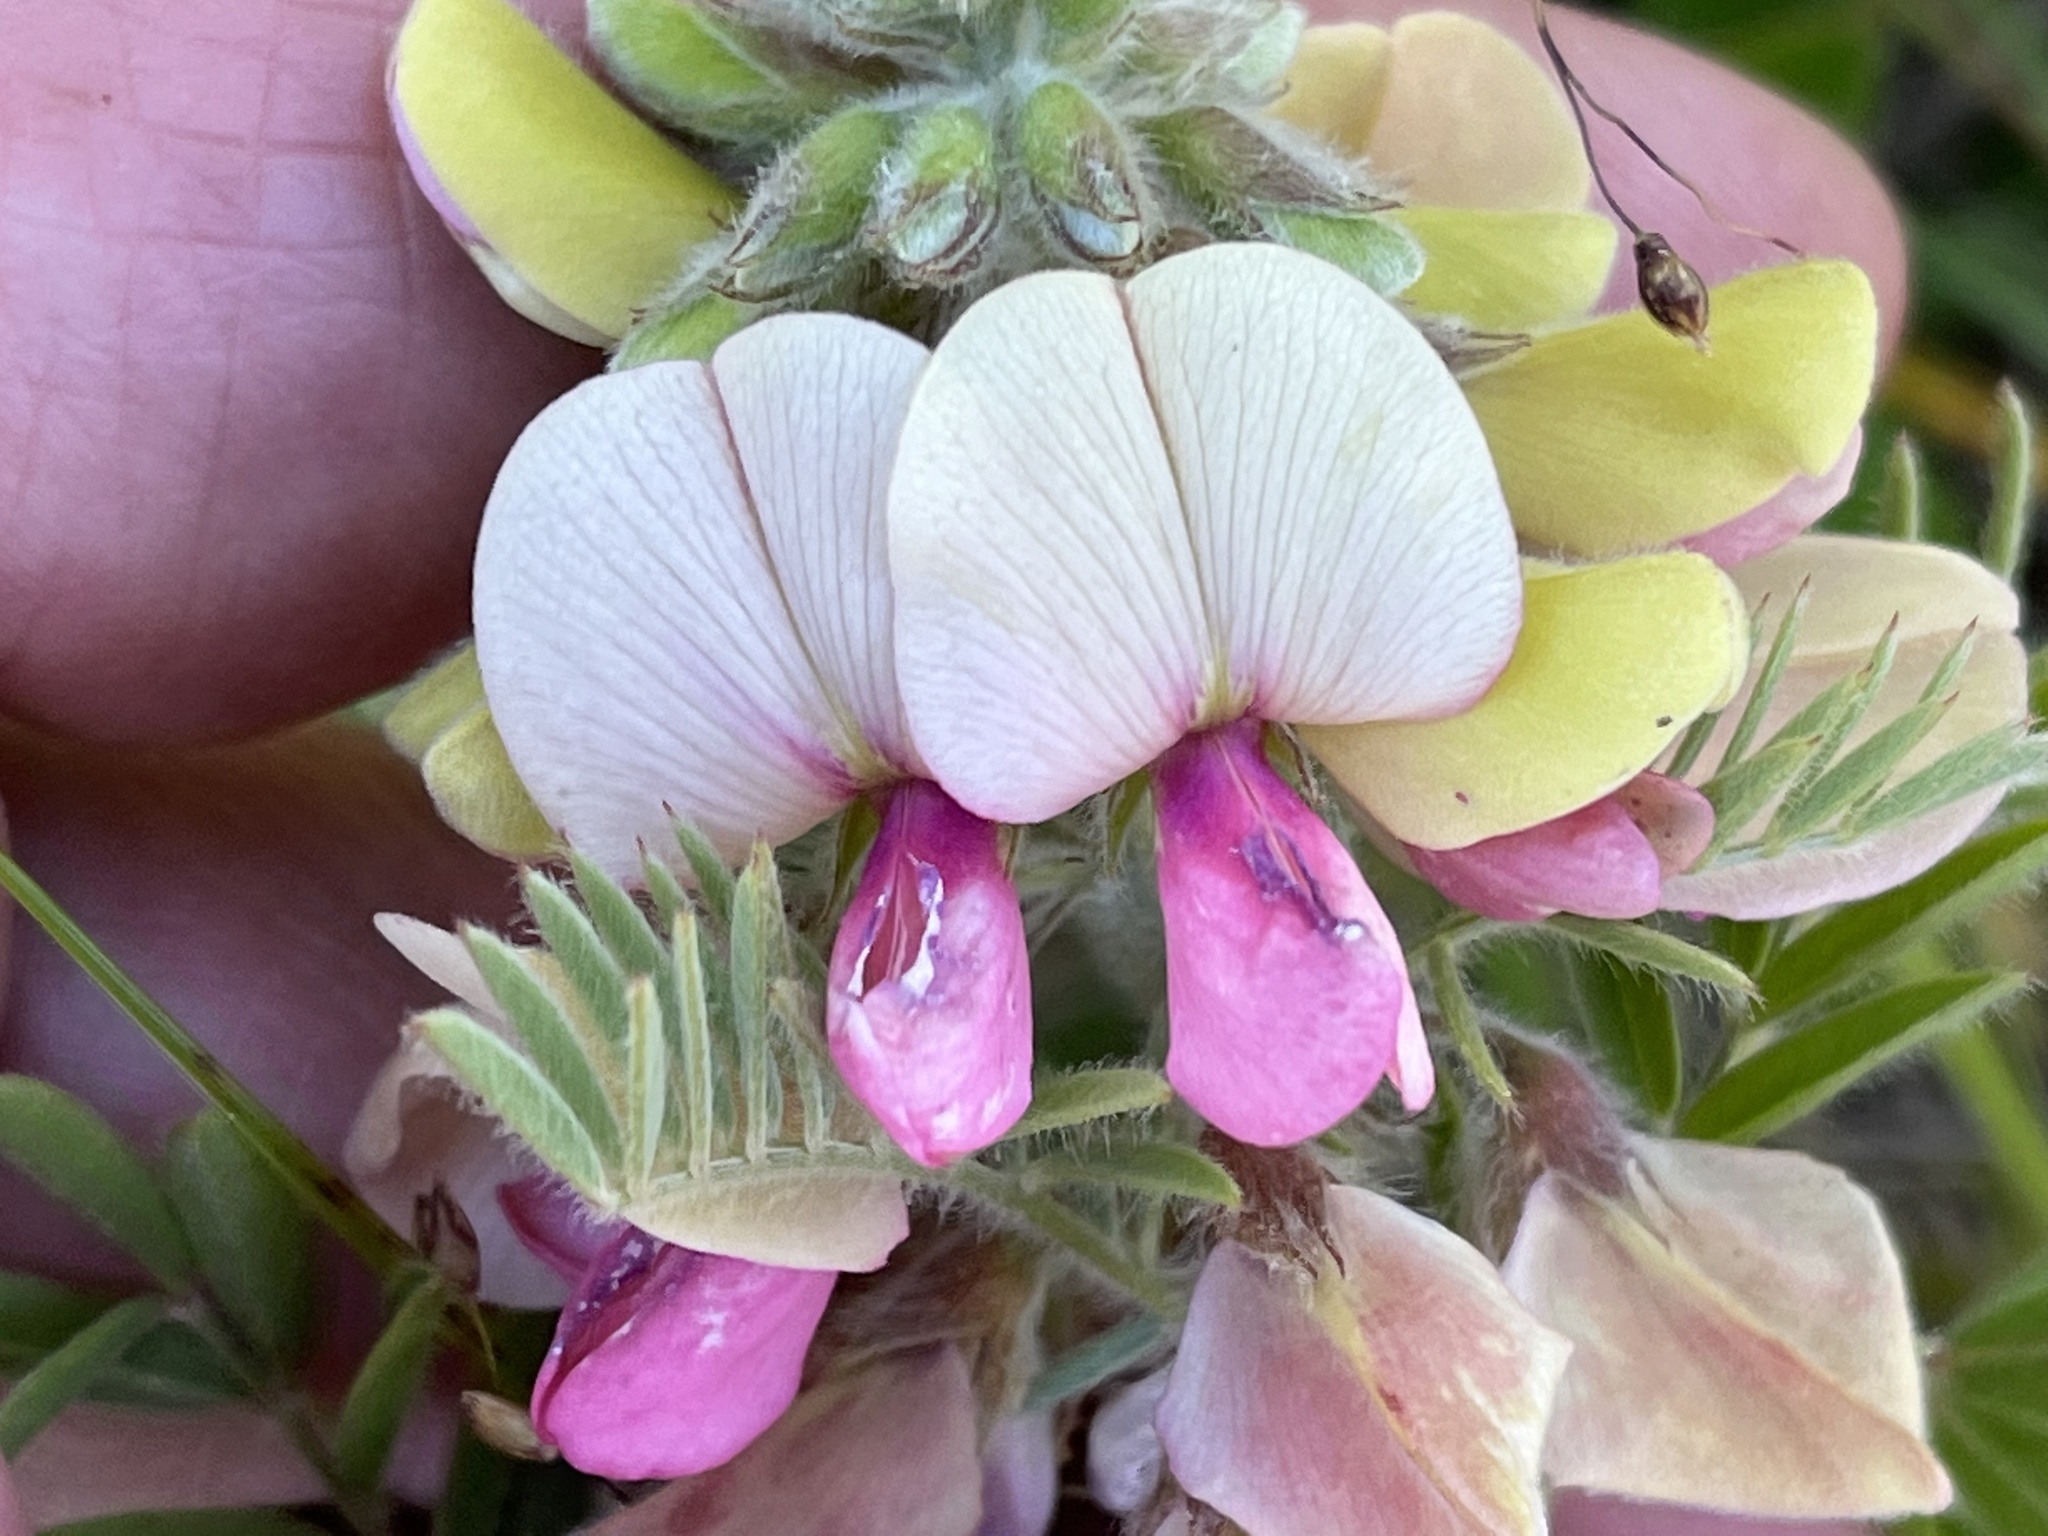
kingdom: Plantae
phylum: Tracheophyta
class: Magnoliopsida
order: Fabales
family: Fabaceae
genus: Tephrosia
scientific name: Tephrosia virginiana
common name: Rabbit-pea
